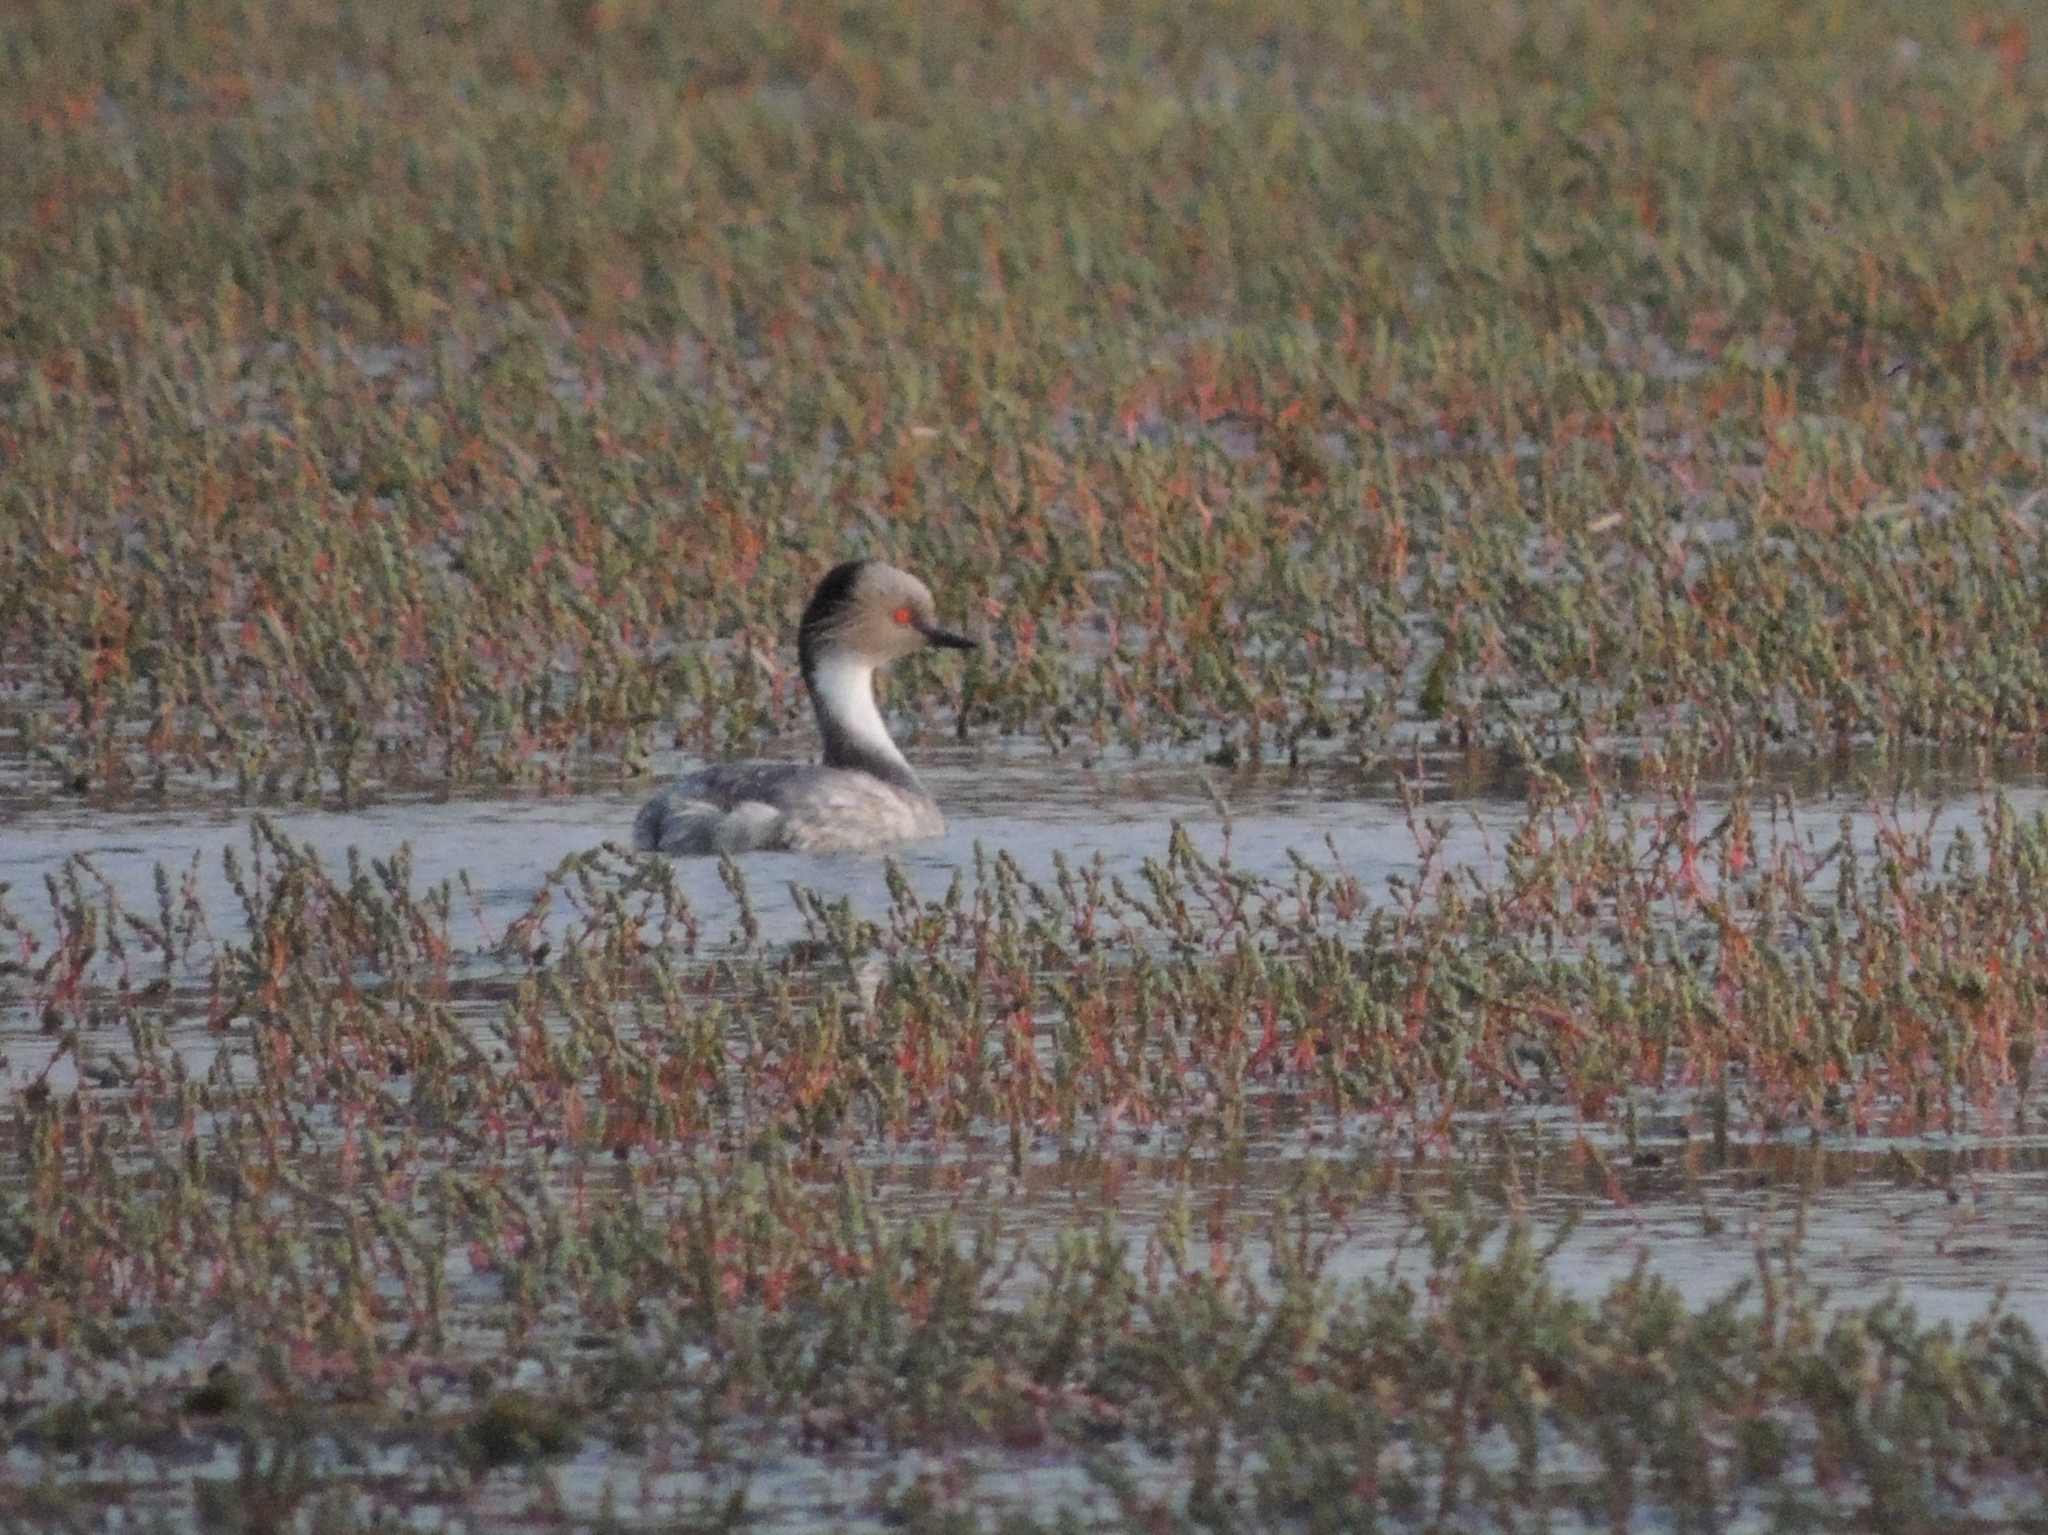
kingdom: Animalia
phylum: Chordata
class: Aves
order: Podicipediformes
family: Podicipedidae
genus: Podiceps
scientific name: Podiceps occipitalis
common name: Silvery grebe
